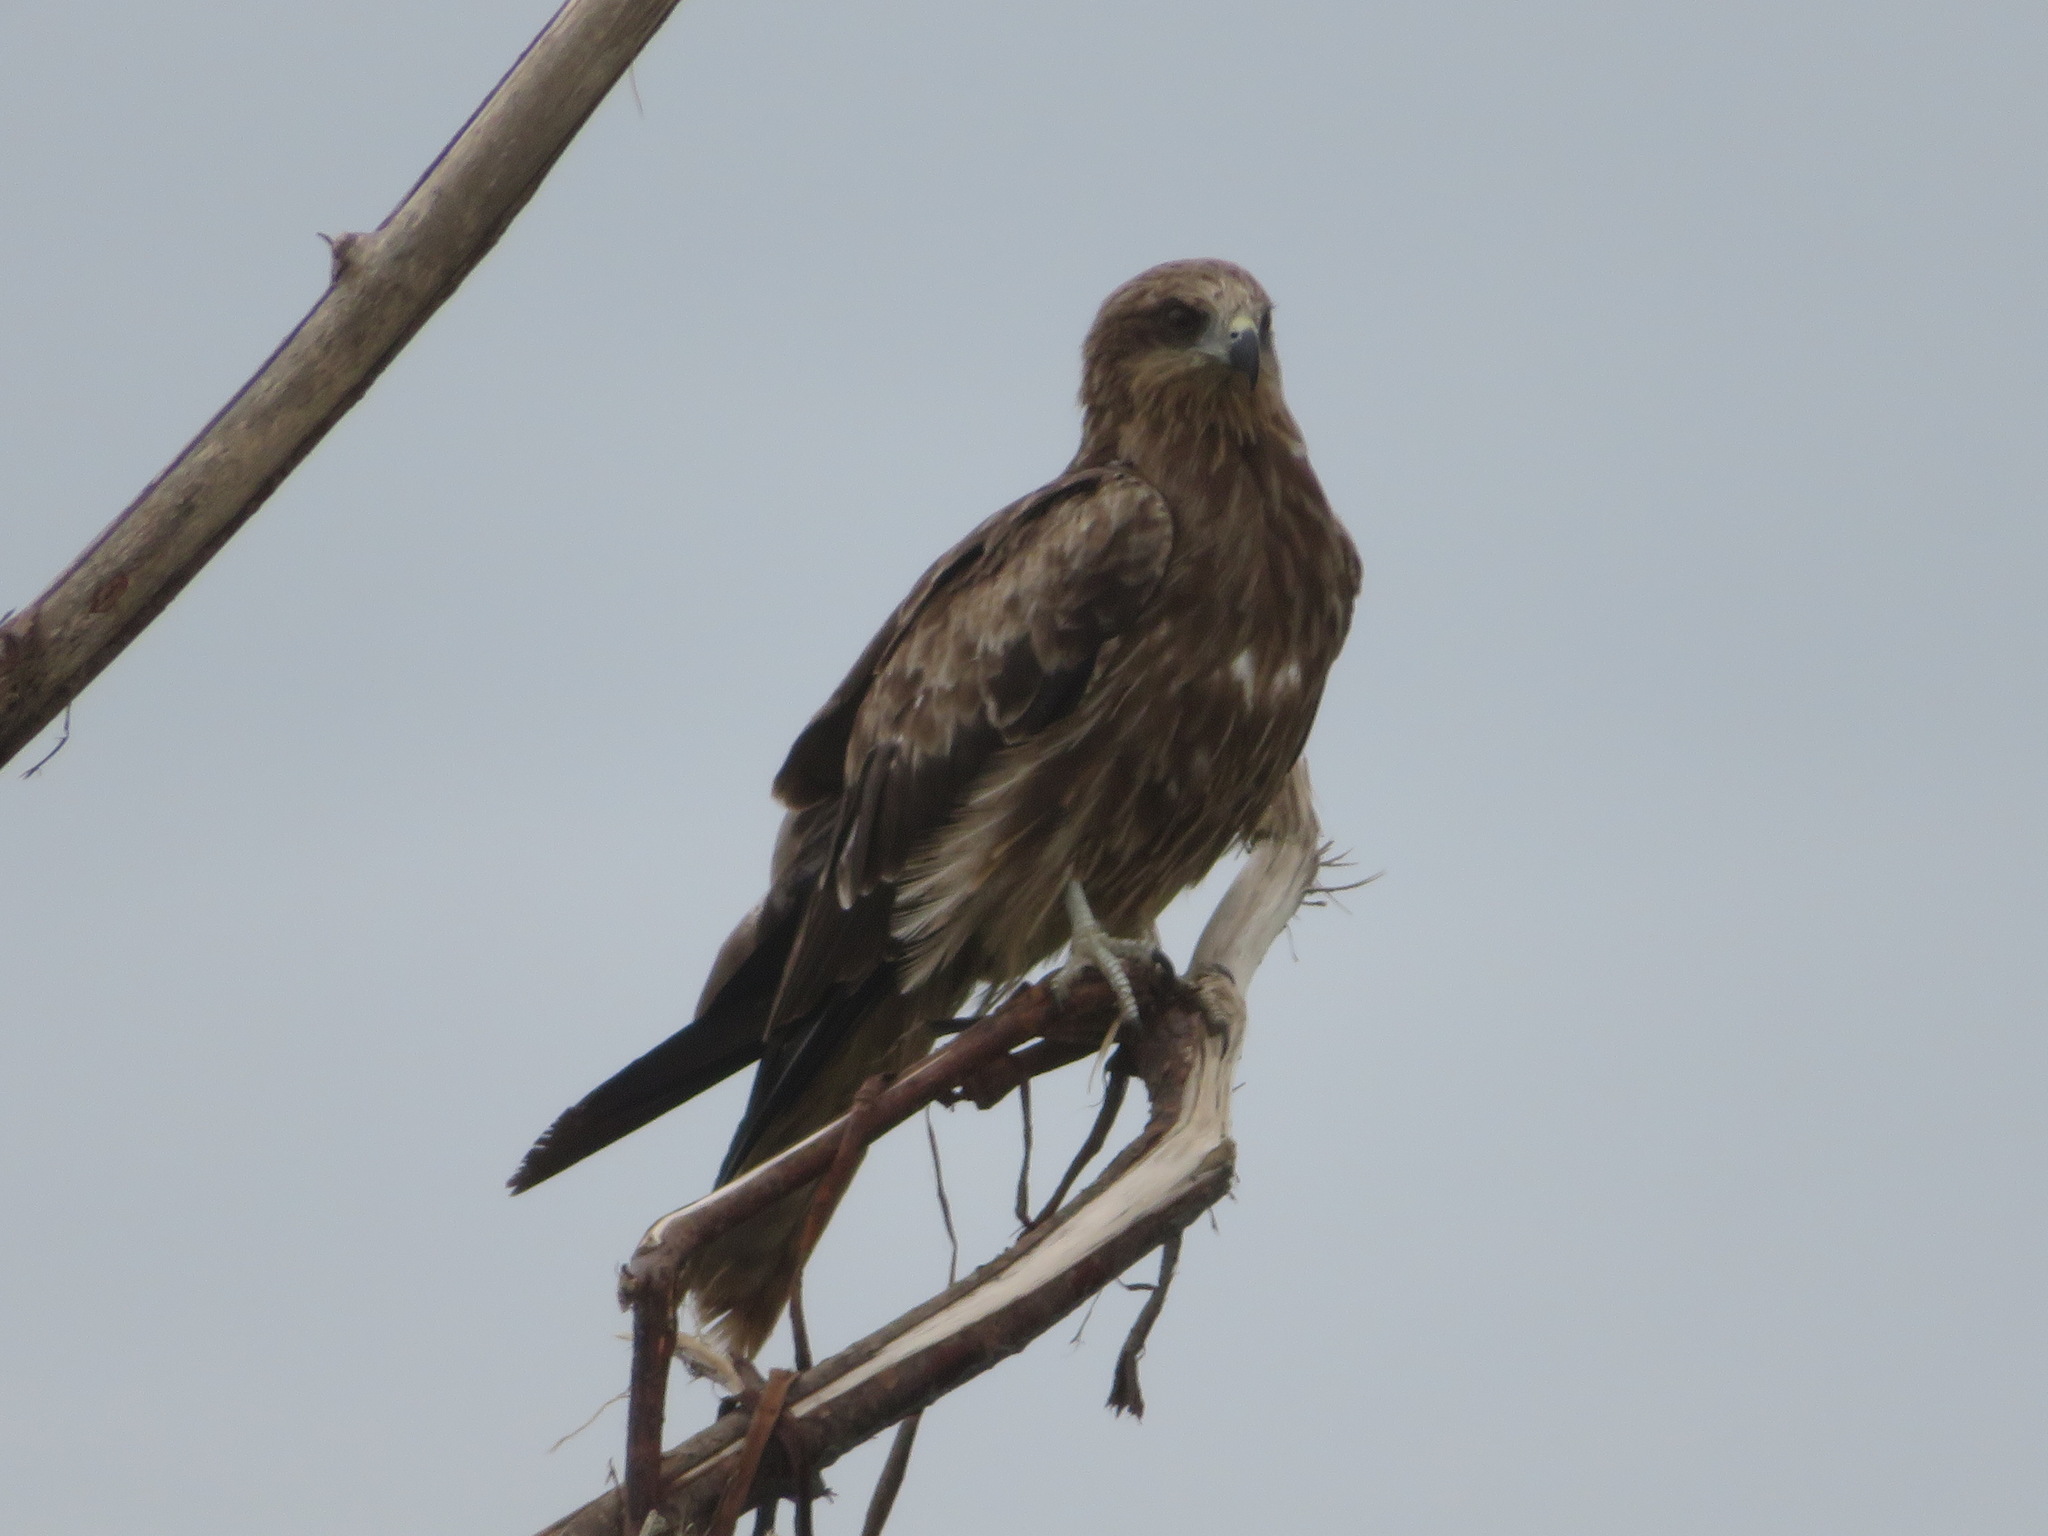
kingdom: Animalia
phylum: Chordata
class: Aves
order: Accipitriformes
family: Accipitridae
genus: Milvus
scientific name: Milvus migrans
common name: Black kite
